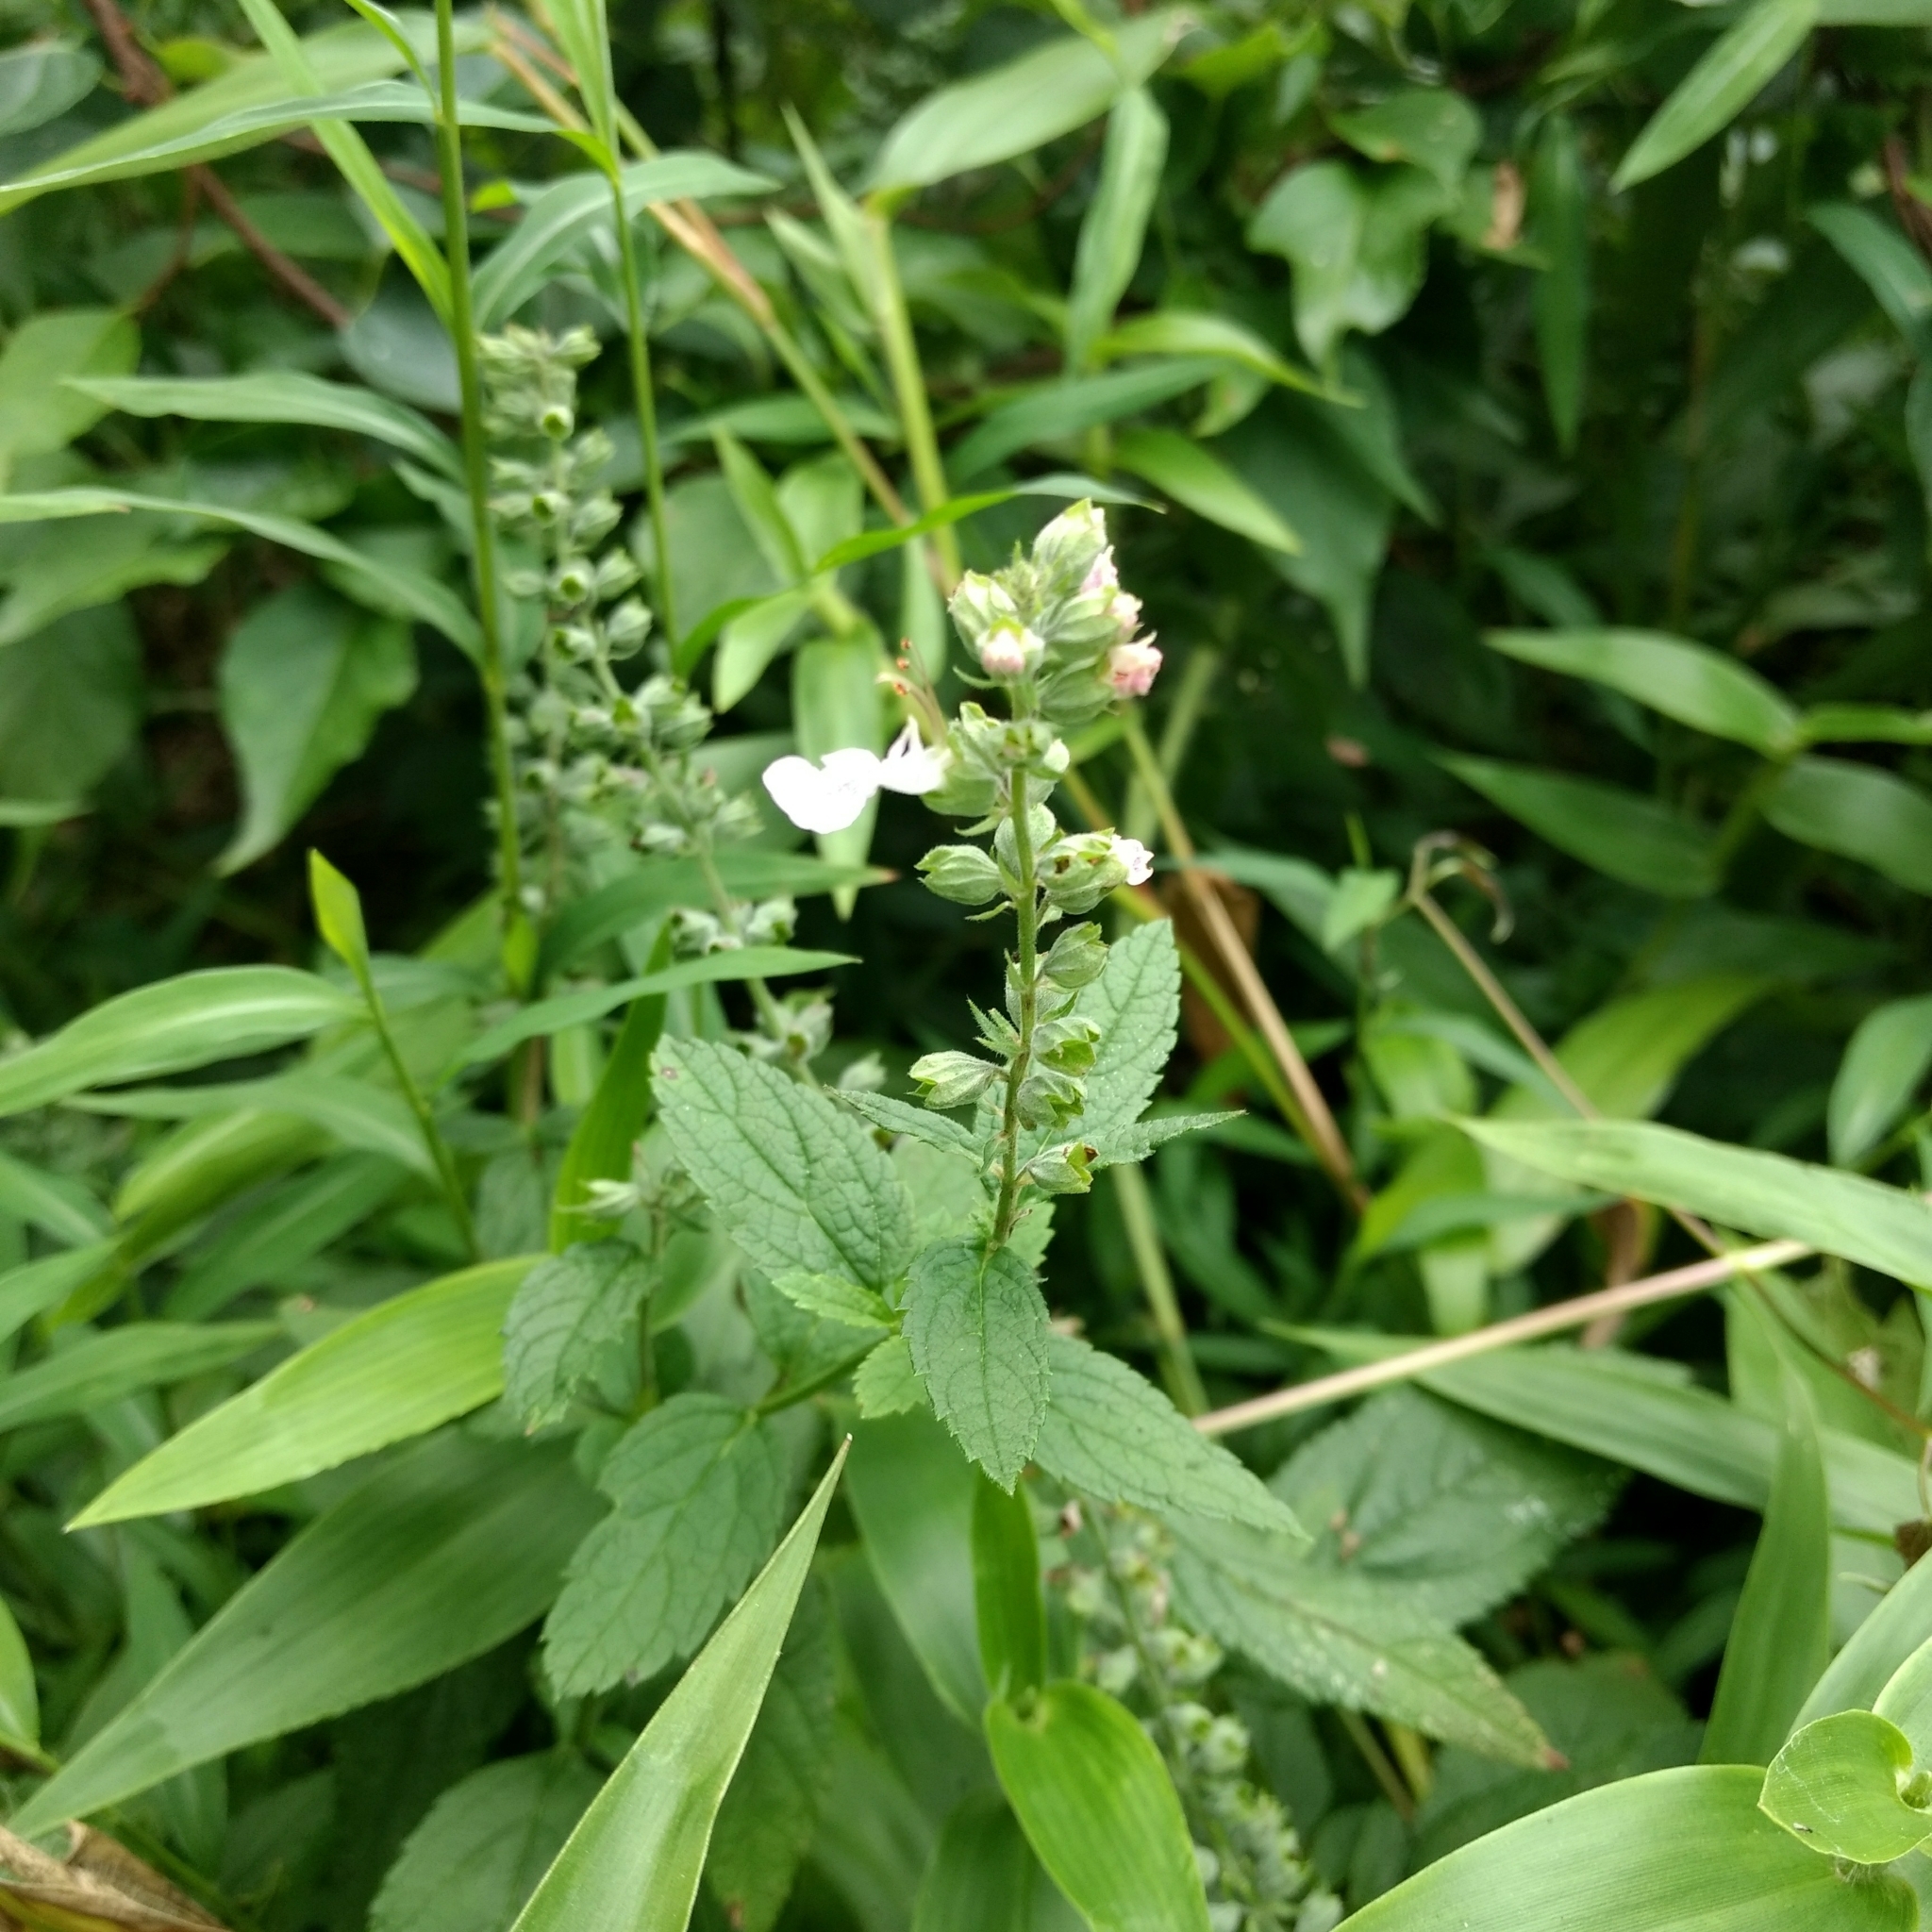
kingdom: Plantae
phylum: Tracheophyta
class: Magnoliopsida
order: Lamiales
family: Lamiaceae
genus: Teucrium
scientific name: Teucrium canadense
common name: American germander
